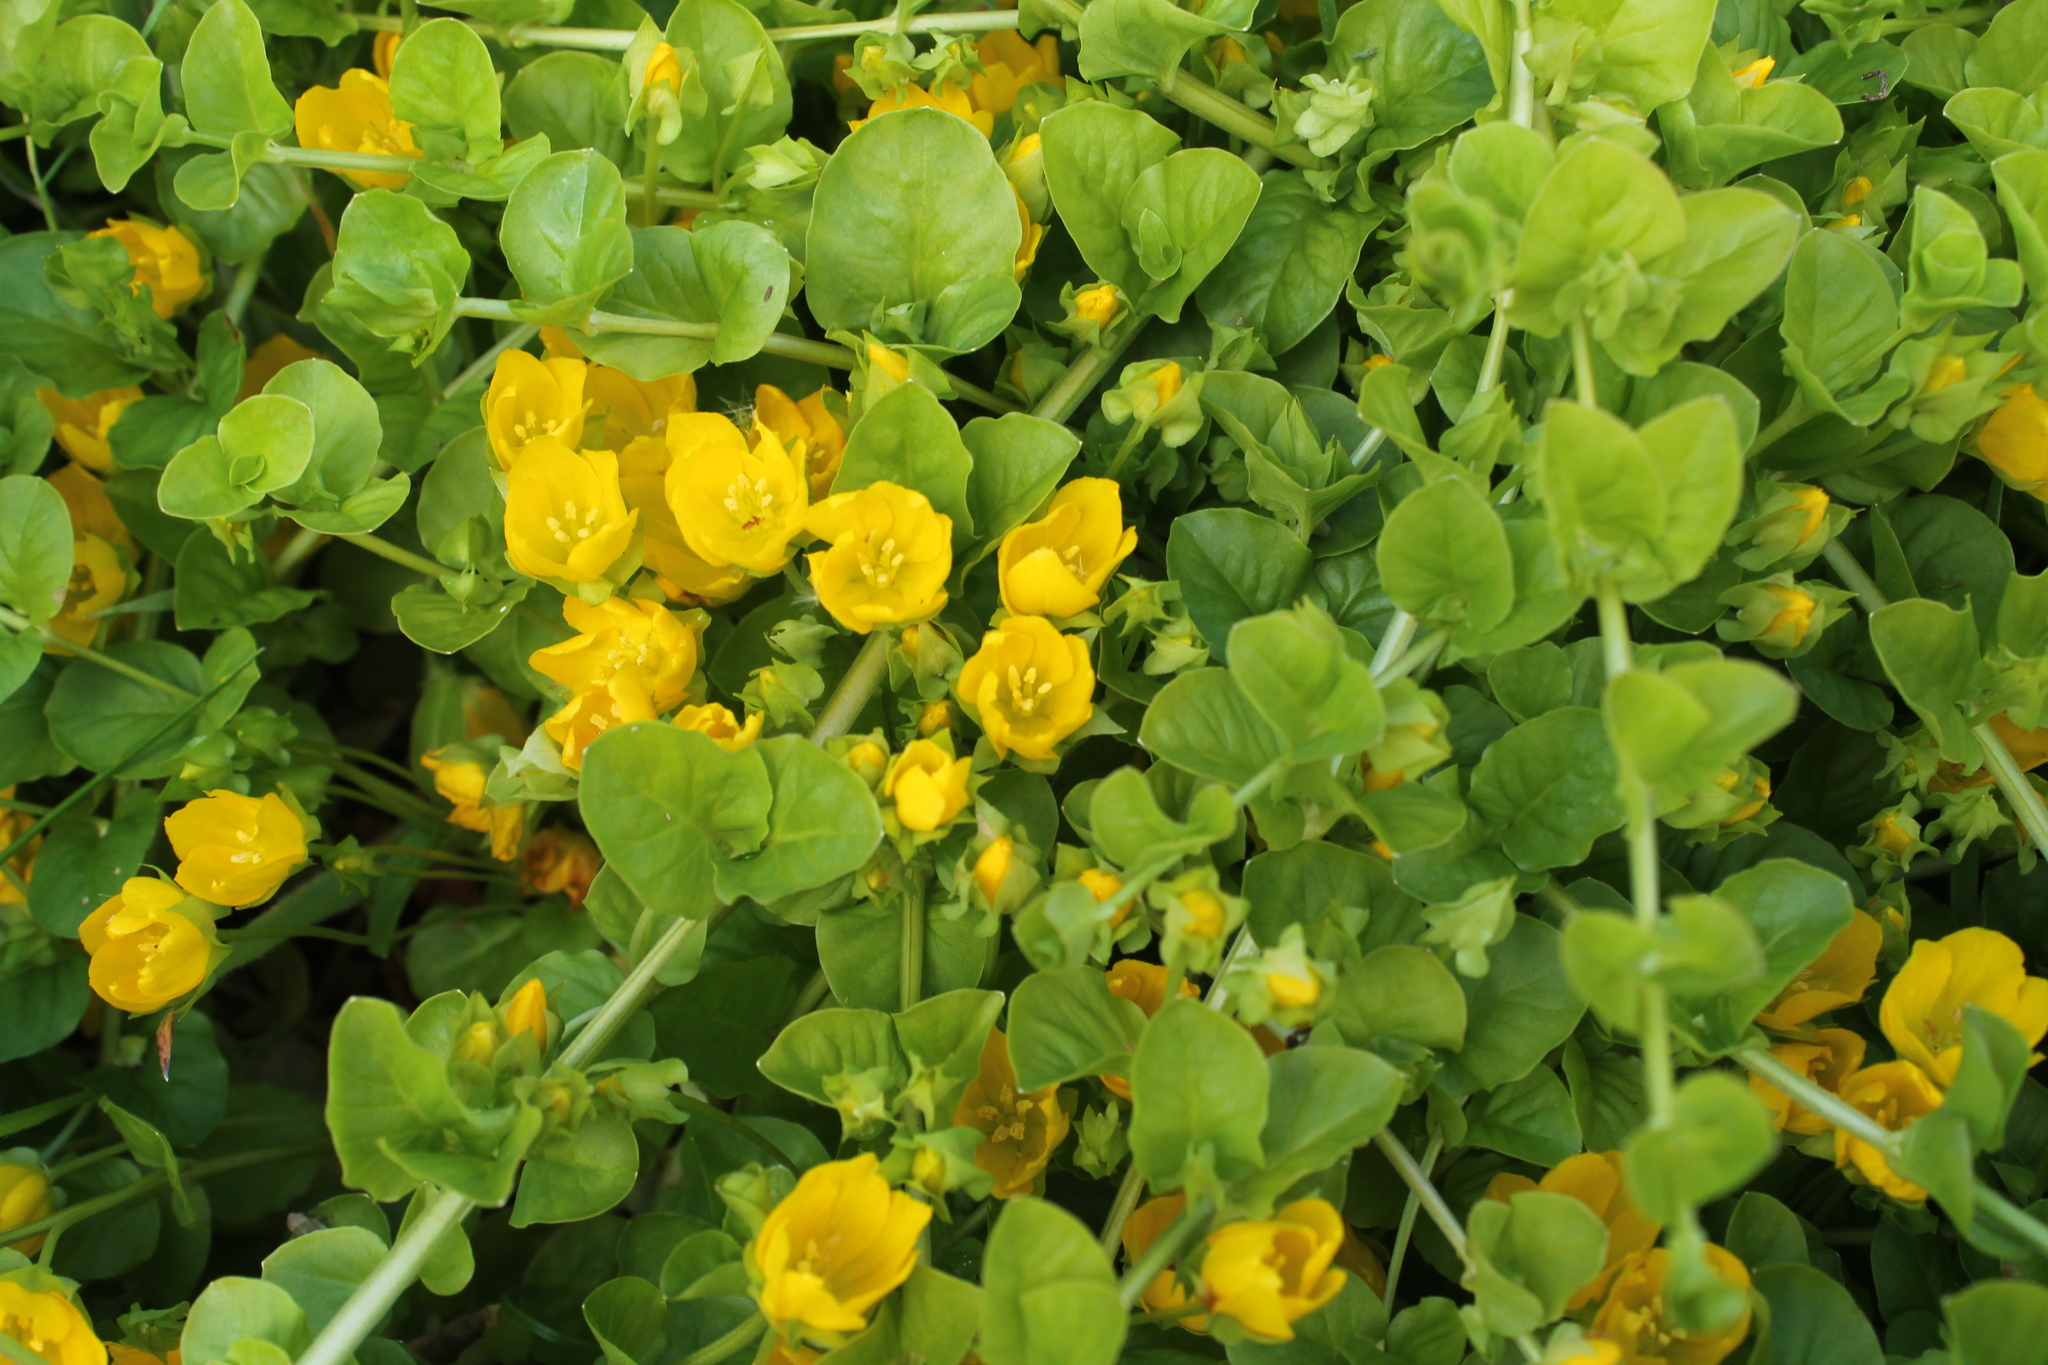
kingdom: Plantae
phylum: Tracheophyta
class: Magnoliopsida
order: Ericales
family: Primulaceae
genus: Lysimachia
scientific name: Lysimachia nummularia
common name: Moneywort
